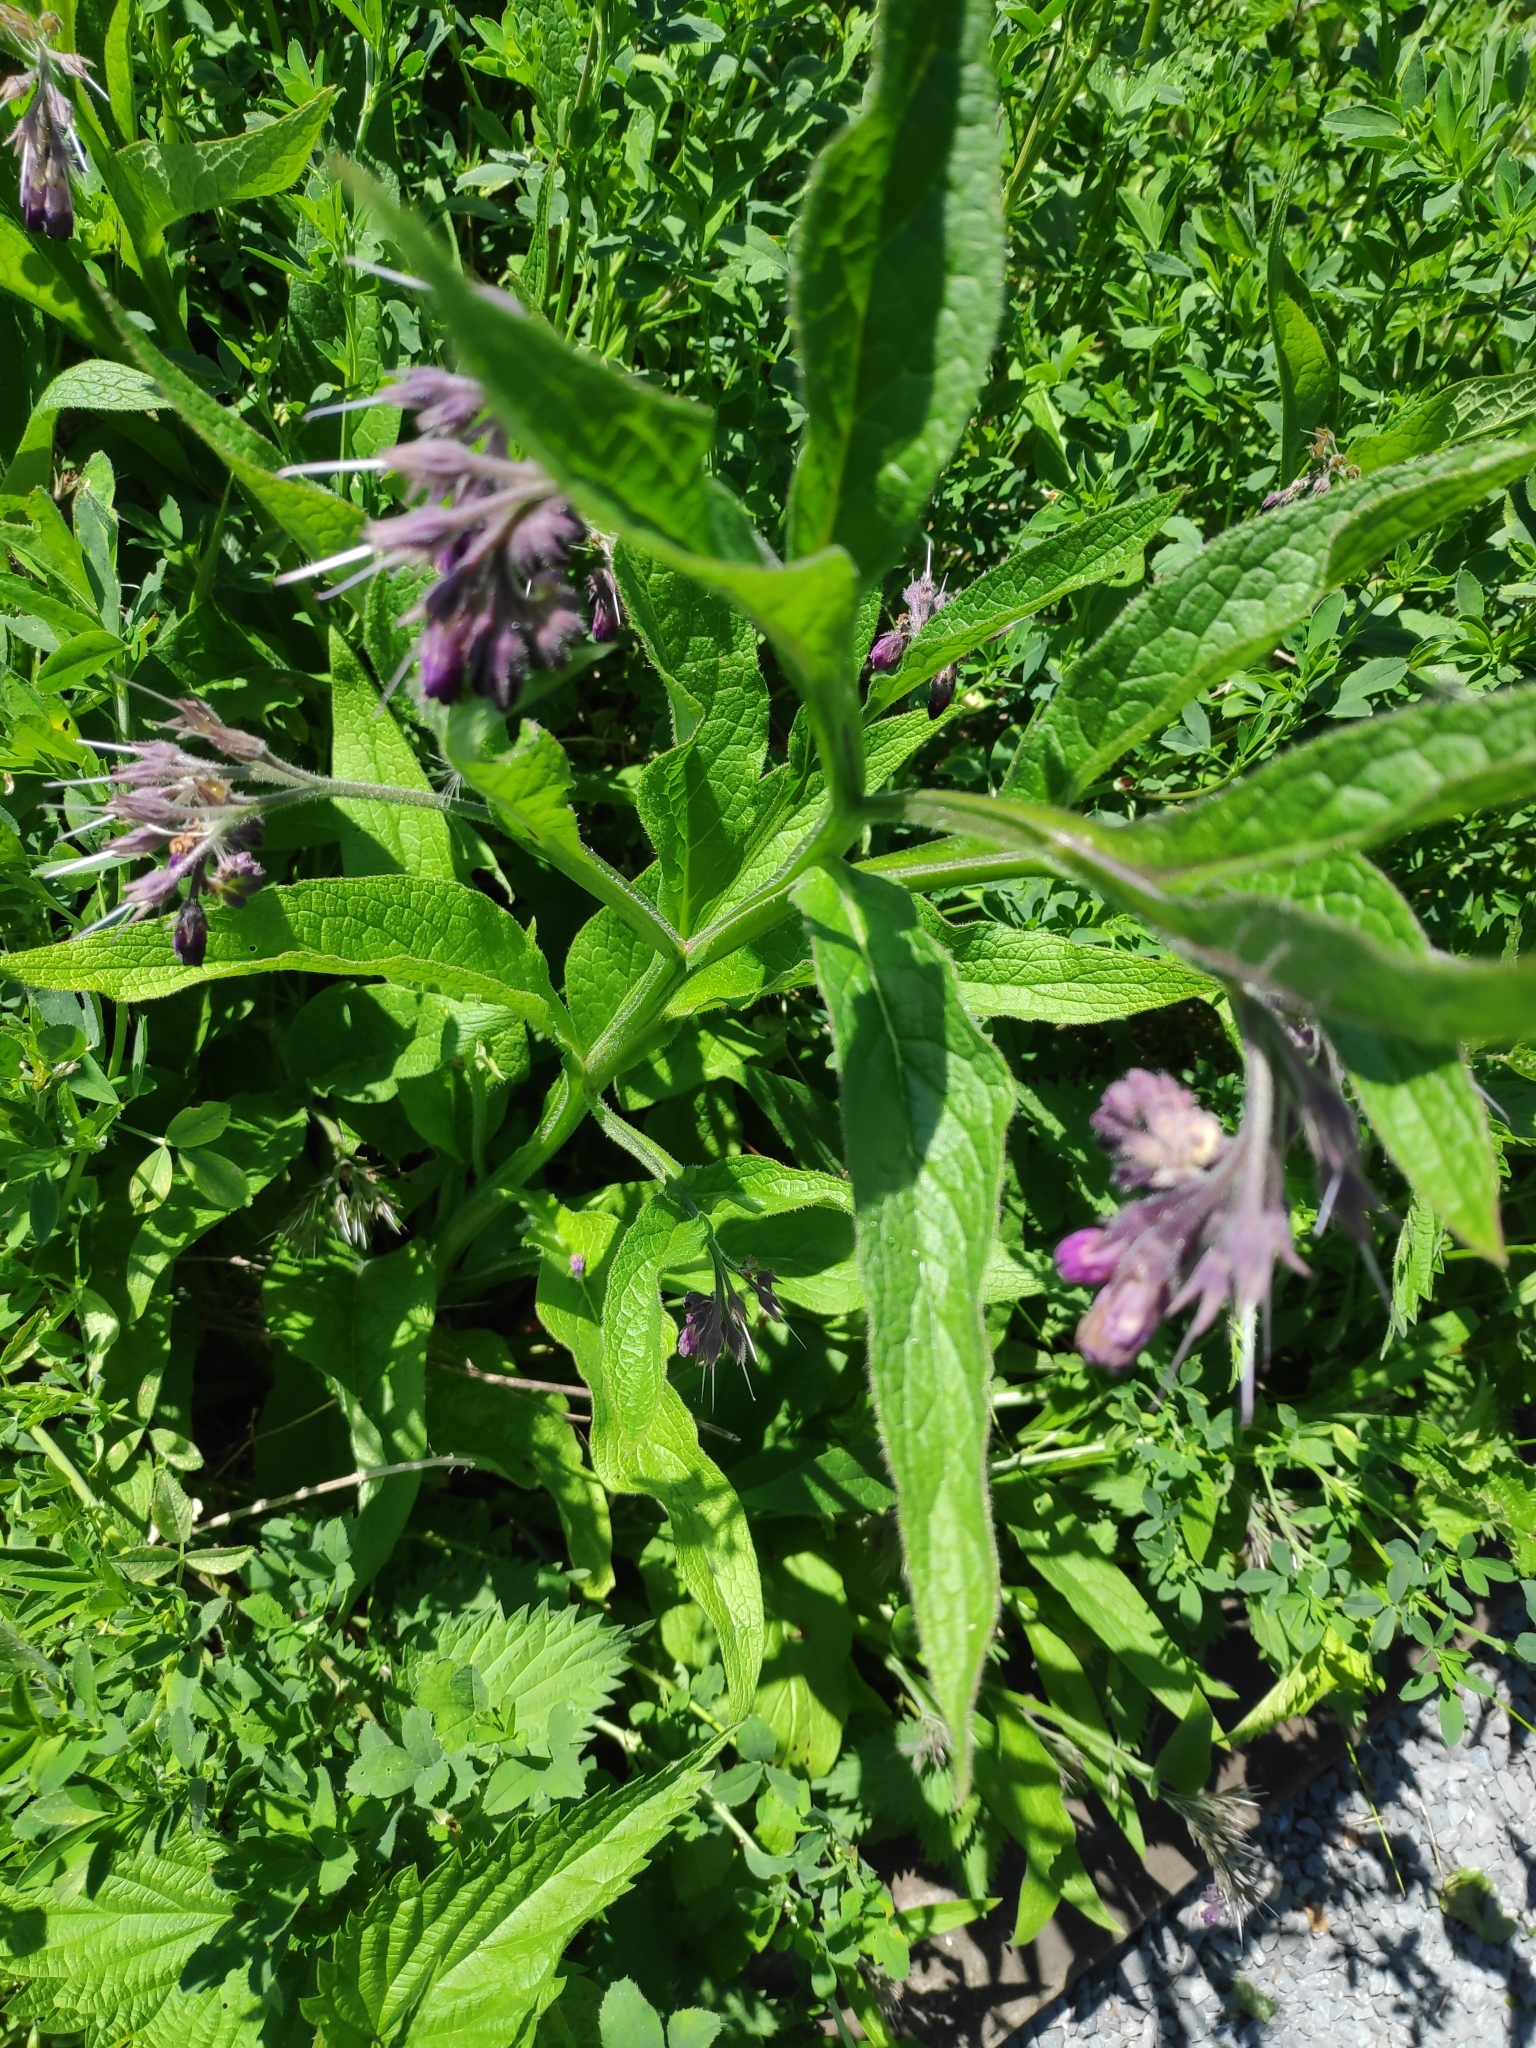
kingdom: Plantae
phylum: Tracheophyta
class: Magnoliopsida
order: Boraginales
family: Boraginaceae
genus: Symphytum
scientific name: Symphytum officinale
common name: Common comfrey
